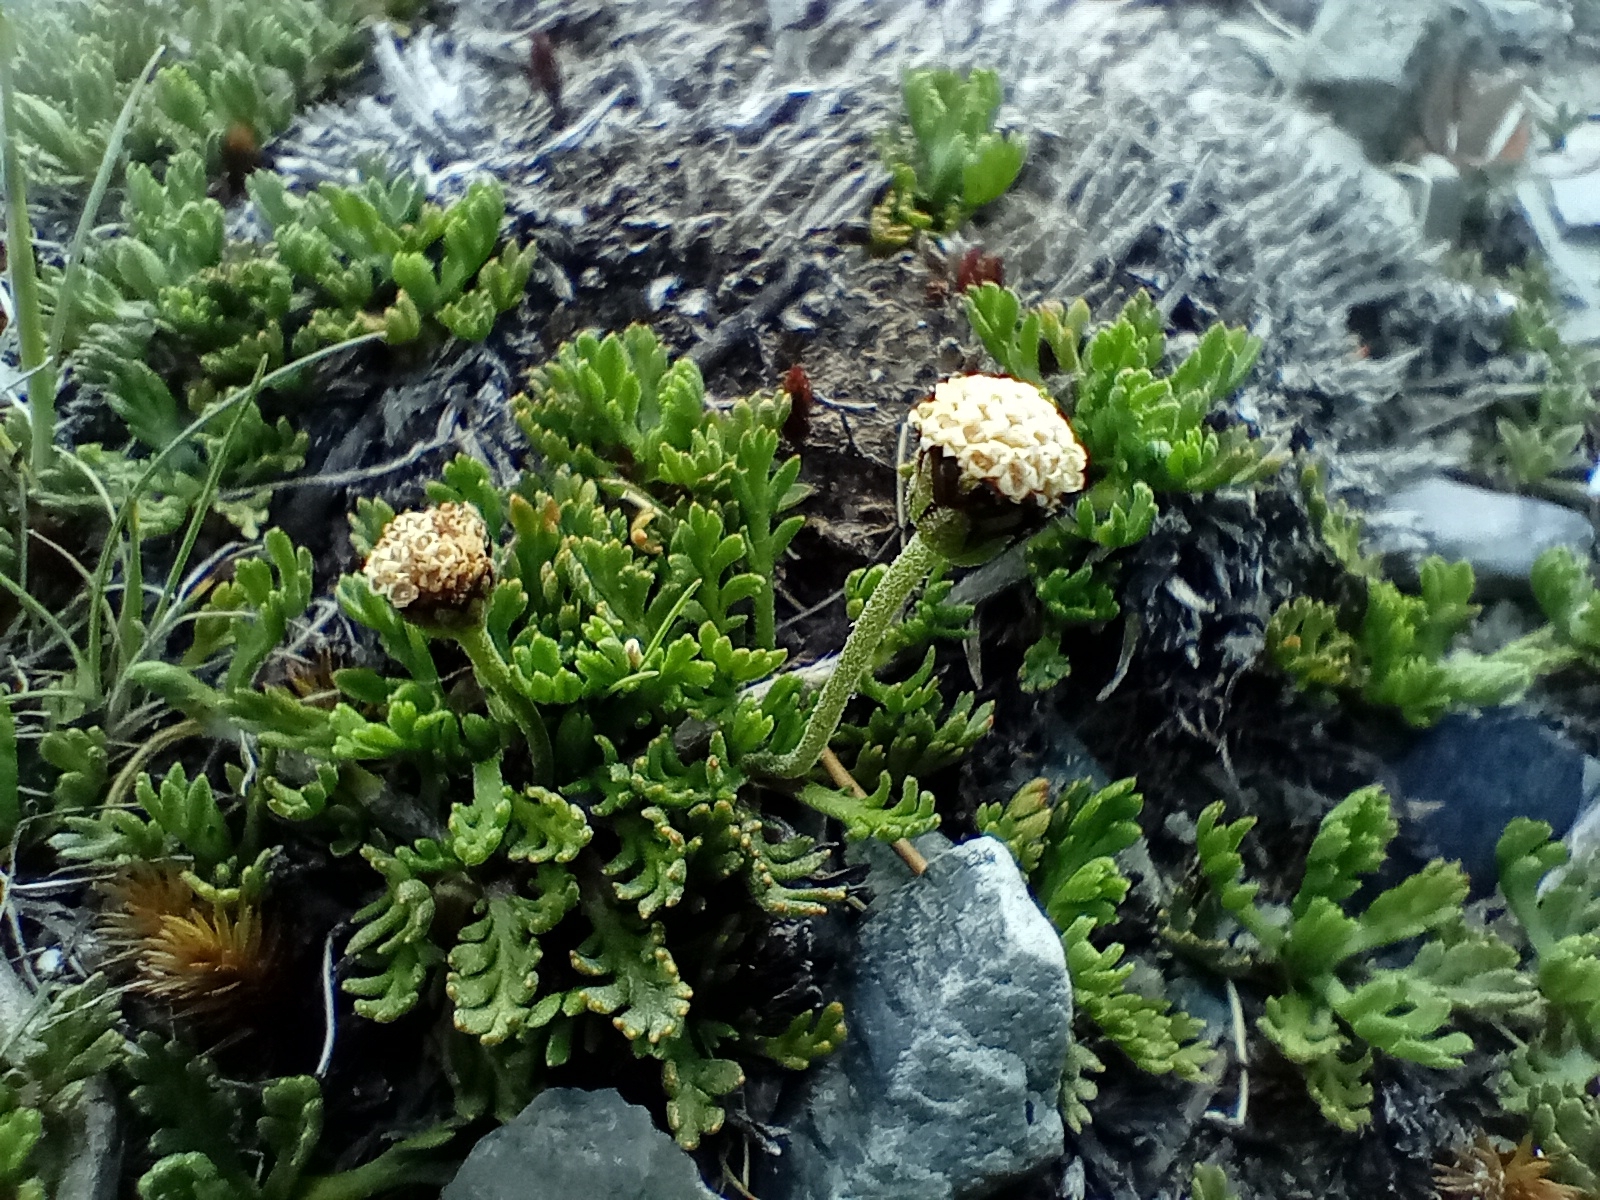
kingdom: Plantae
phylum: Tracheophyta
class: Magnoliopsida
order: Asterales
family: Asteraceae
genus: Leptinella
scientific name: Leptinella pectinata
